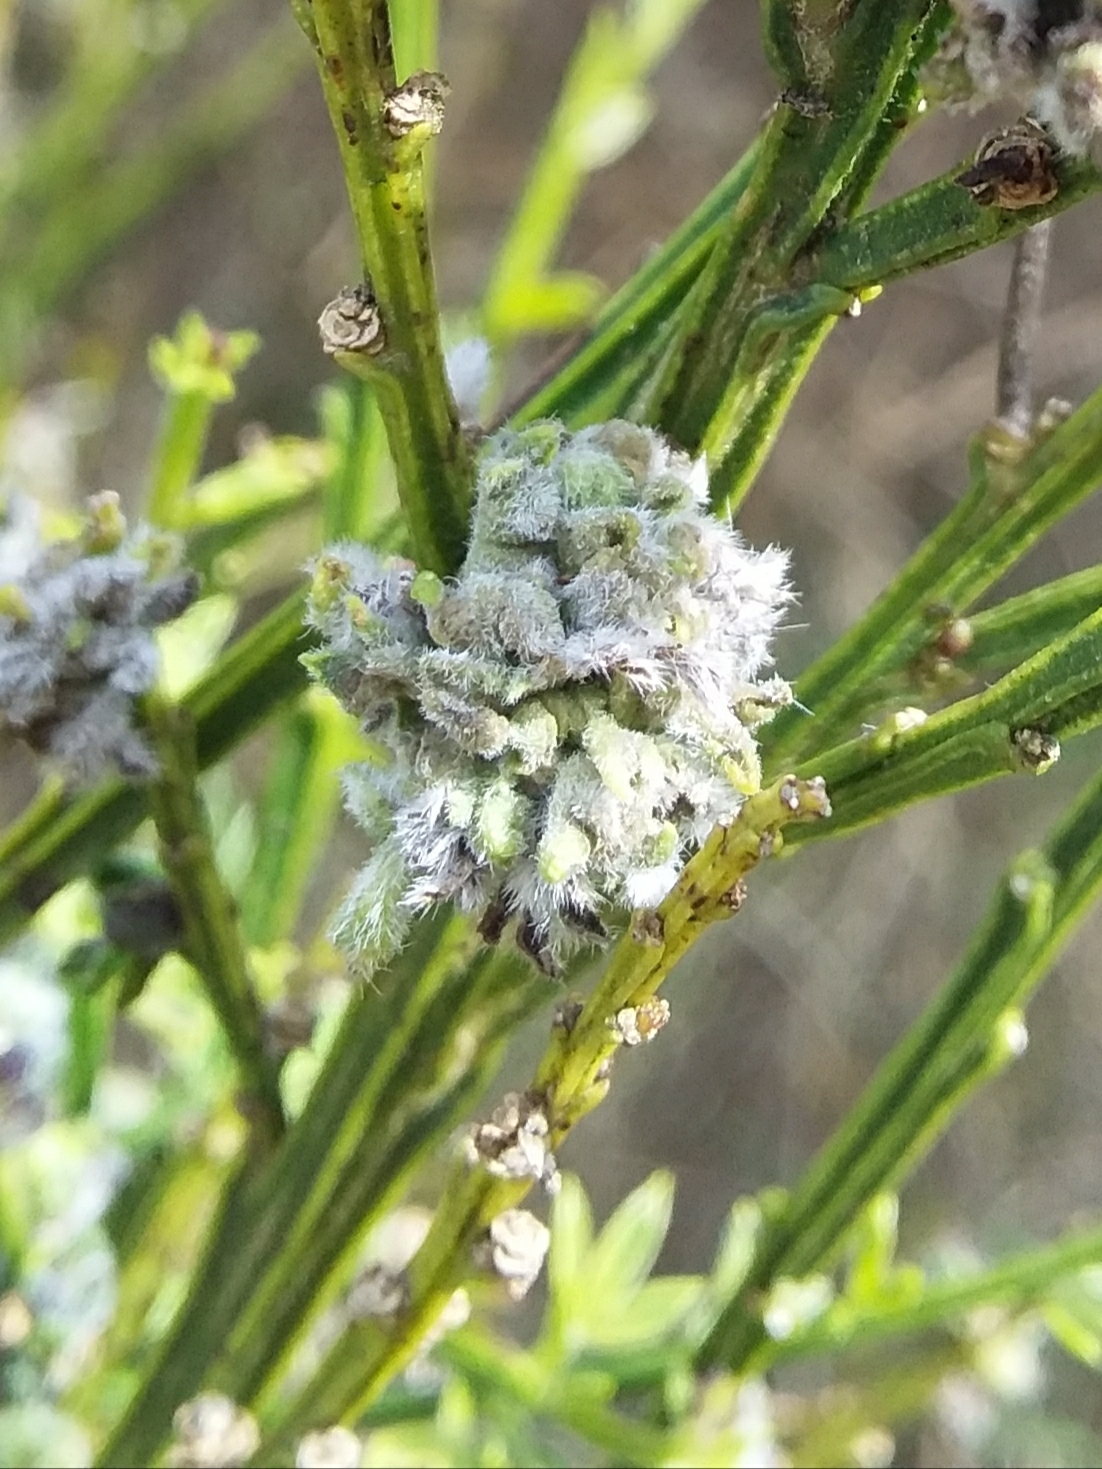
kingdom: Animalia
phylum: Arthropoda
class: Arachnida
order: Trombidiformes
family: Eriophyidae
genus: Aceria
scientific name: Aceria genistae
